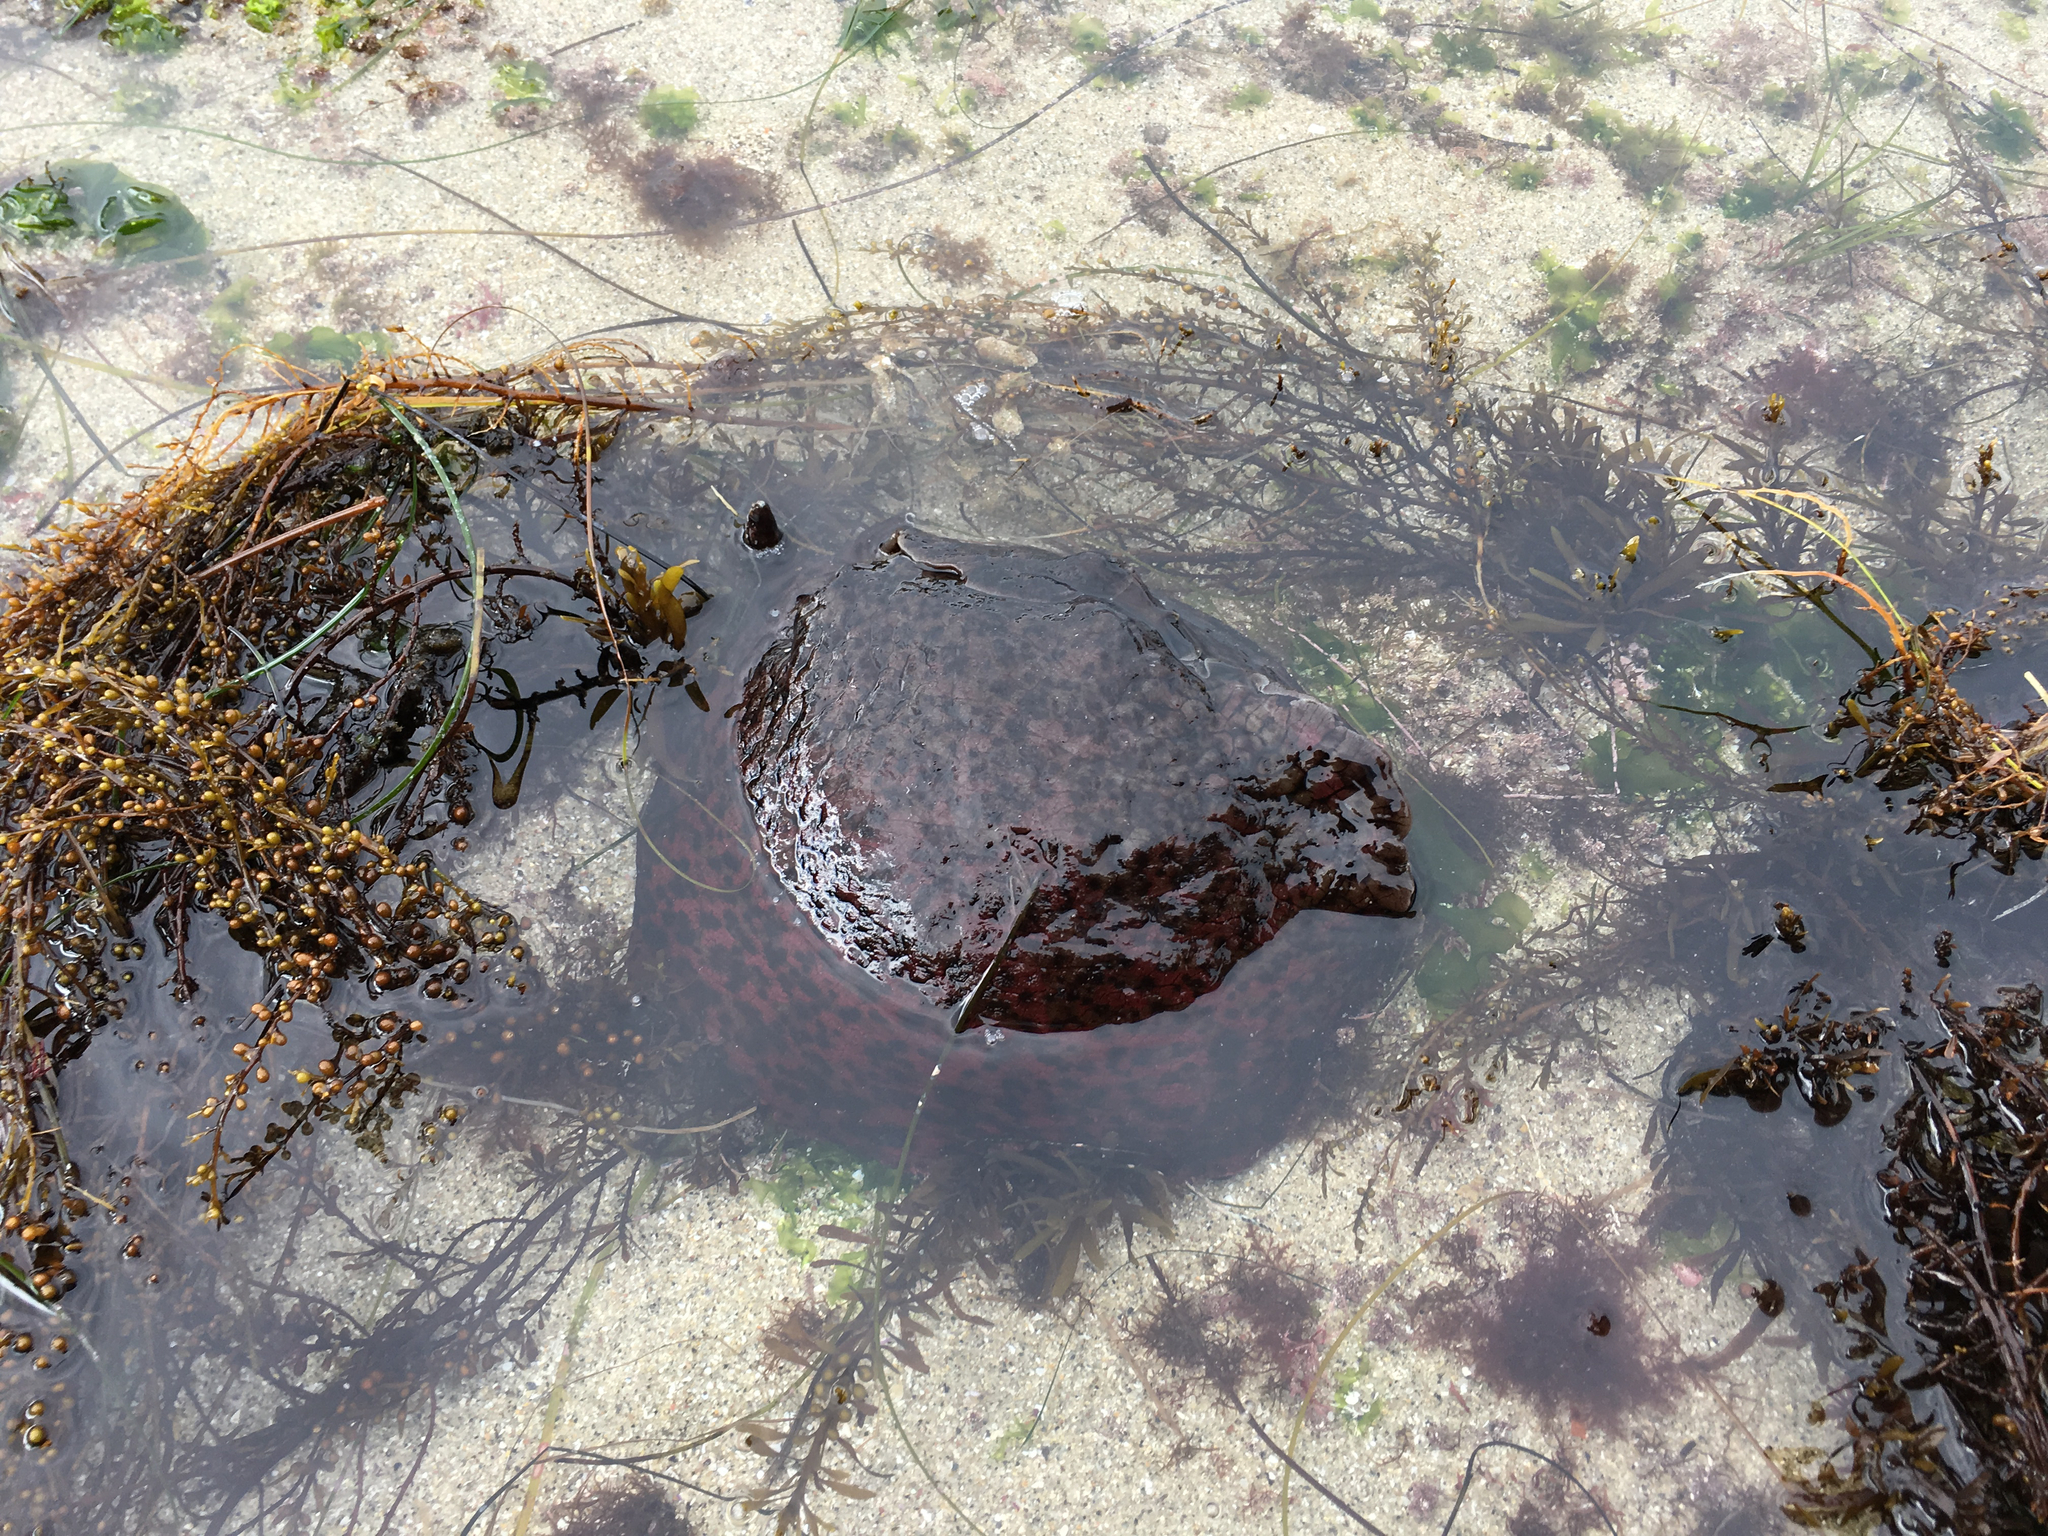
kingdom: Animalia
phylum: Mollusca
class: Gastropoda
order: Aplysiida
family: Aplysiidae
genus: Aplysia
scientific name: Aplysia californica
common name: California seahare
